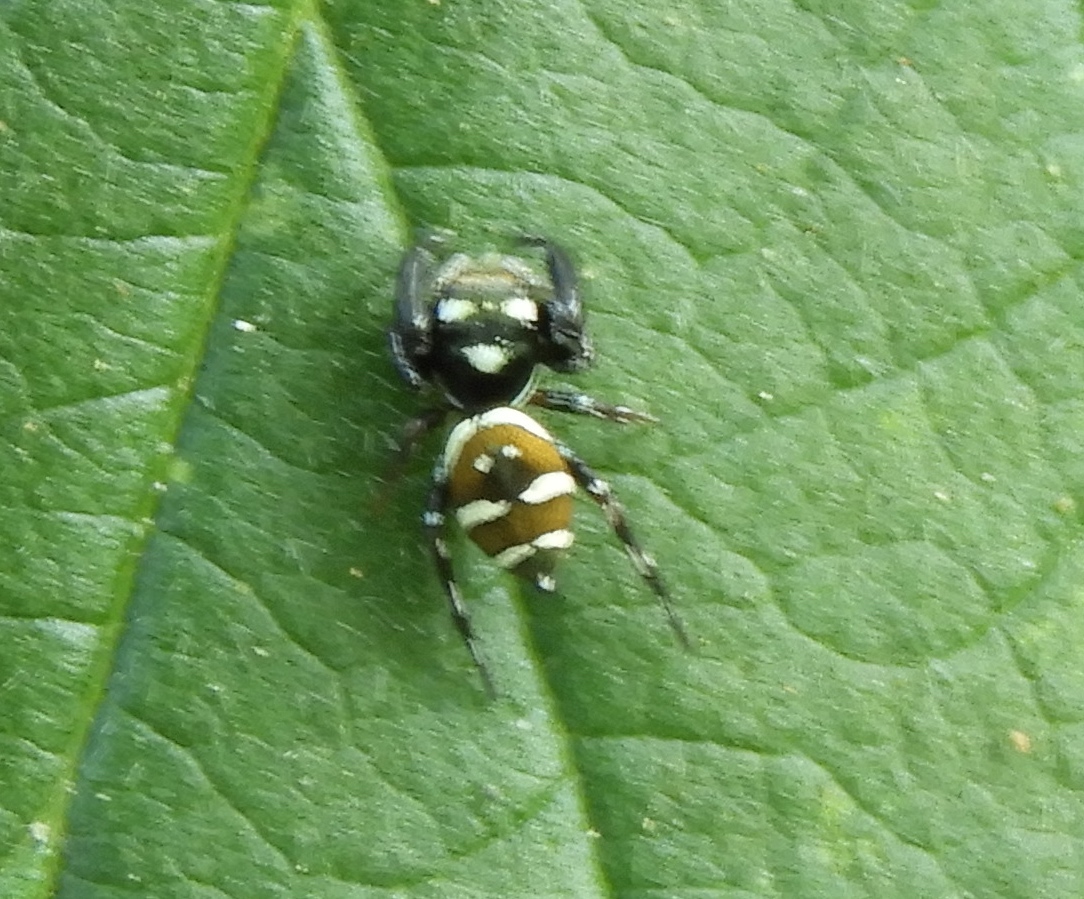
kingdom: Animalia
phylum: Arthropoda
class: Arachnida
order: Araneae
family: Salticidae
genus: Sassacus
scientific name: Sassacus
